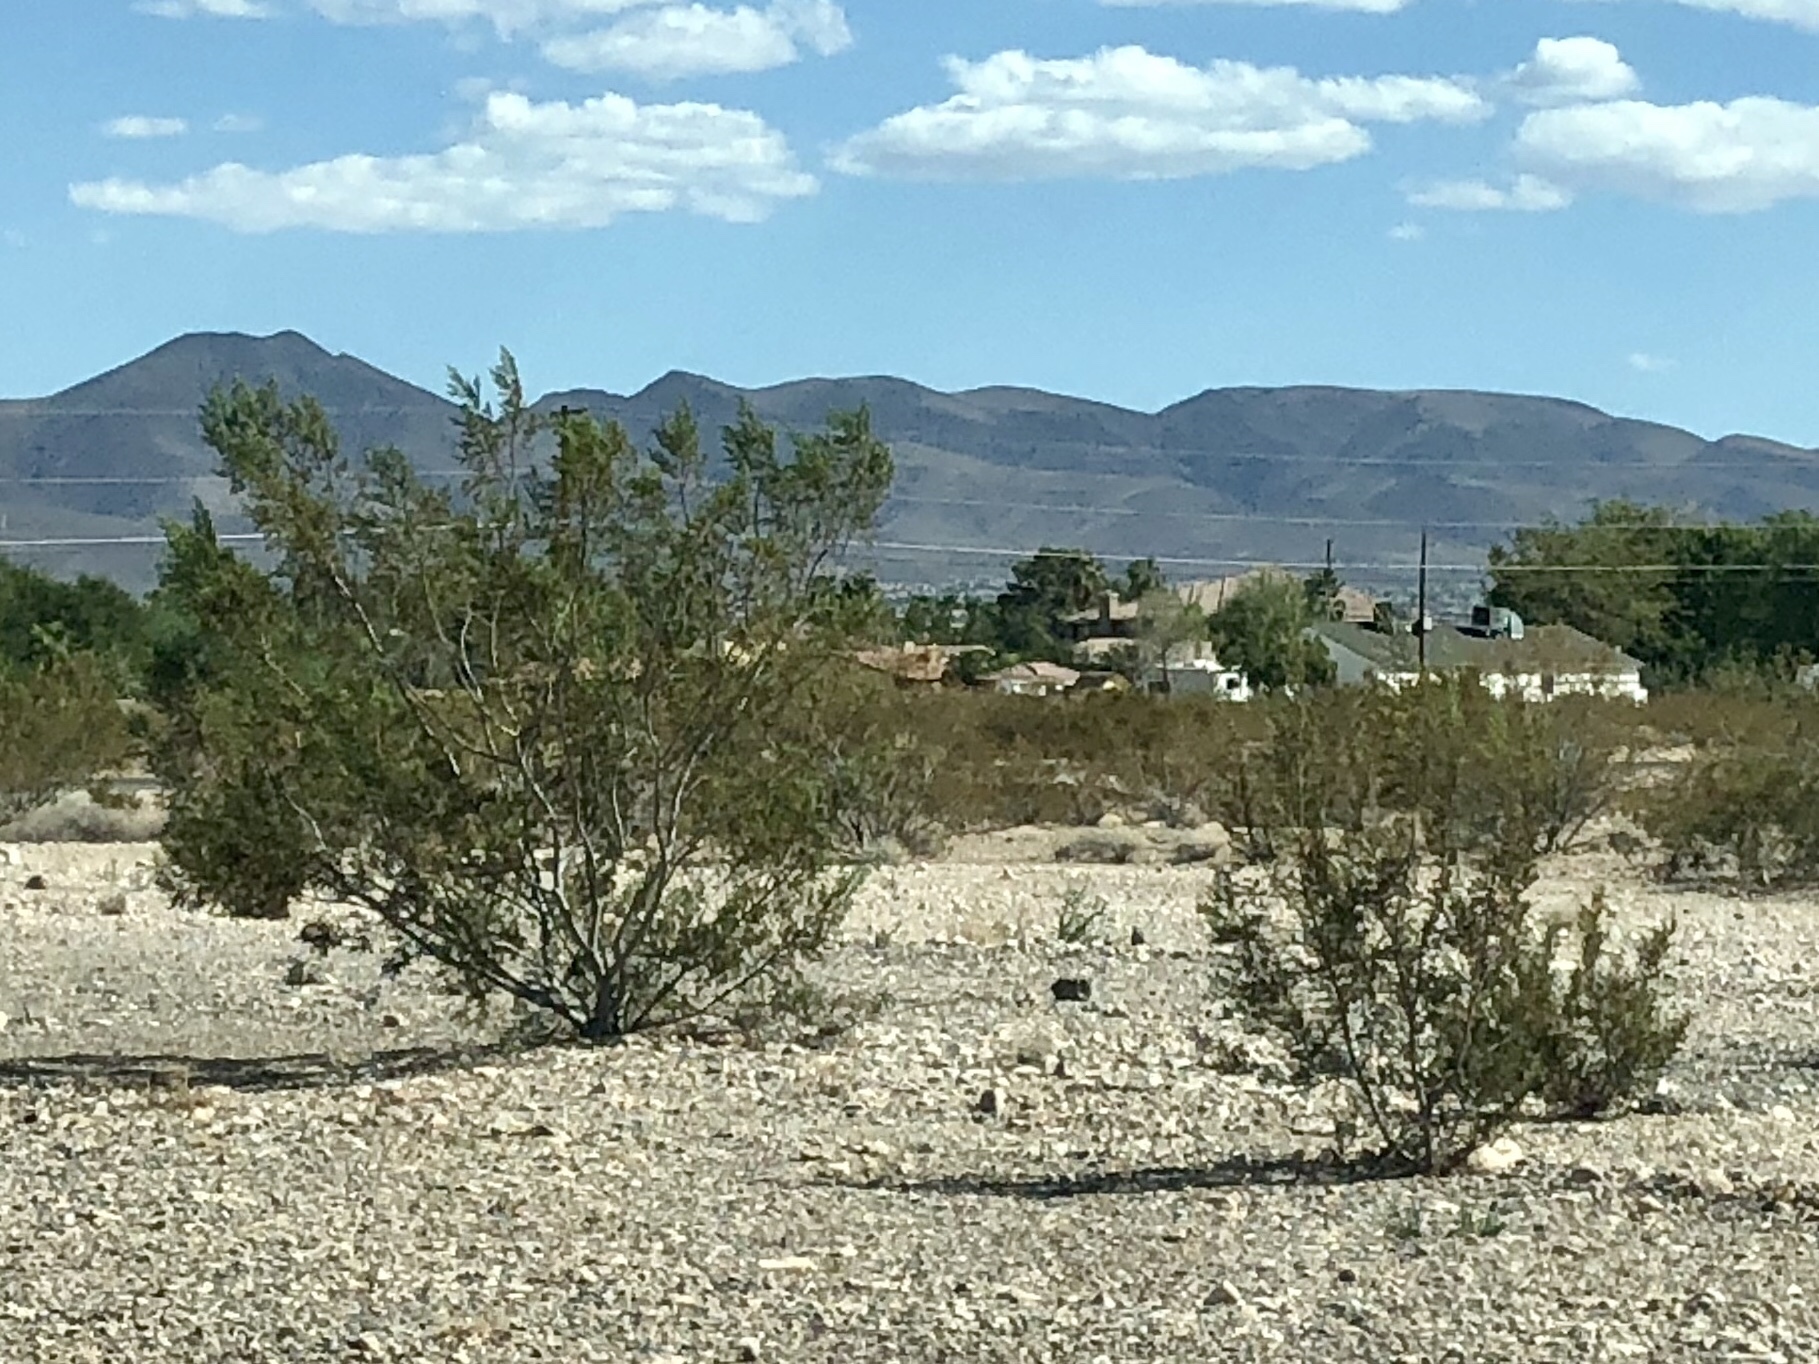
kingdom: Plantae
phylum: Tracheophyta
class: Magnoliopsida
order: Zygophyllales
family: Zygophyllaceae
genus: Larrea
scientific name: Larrea tridentata
